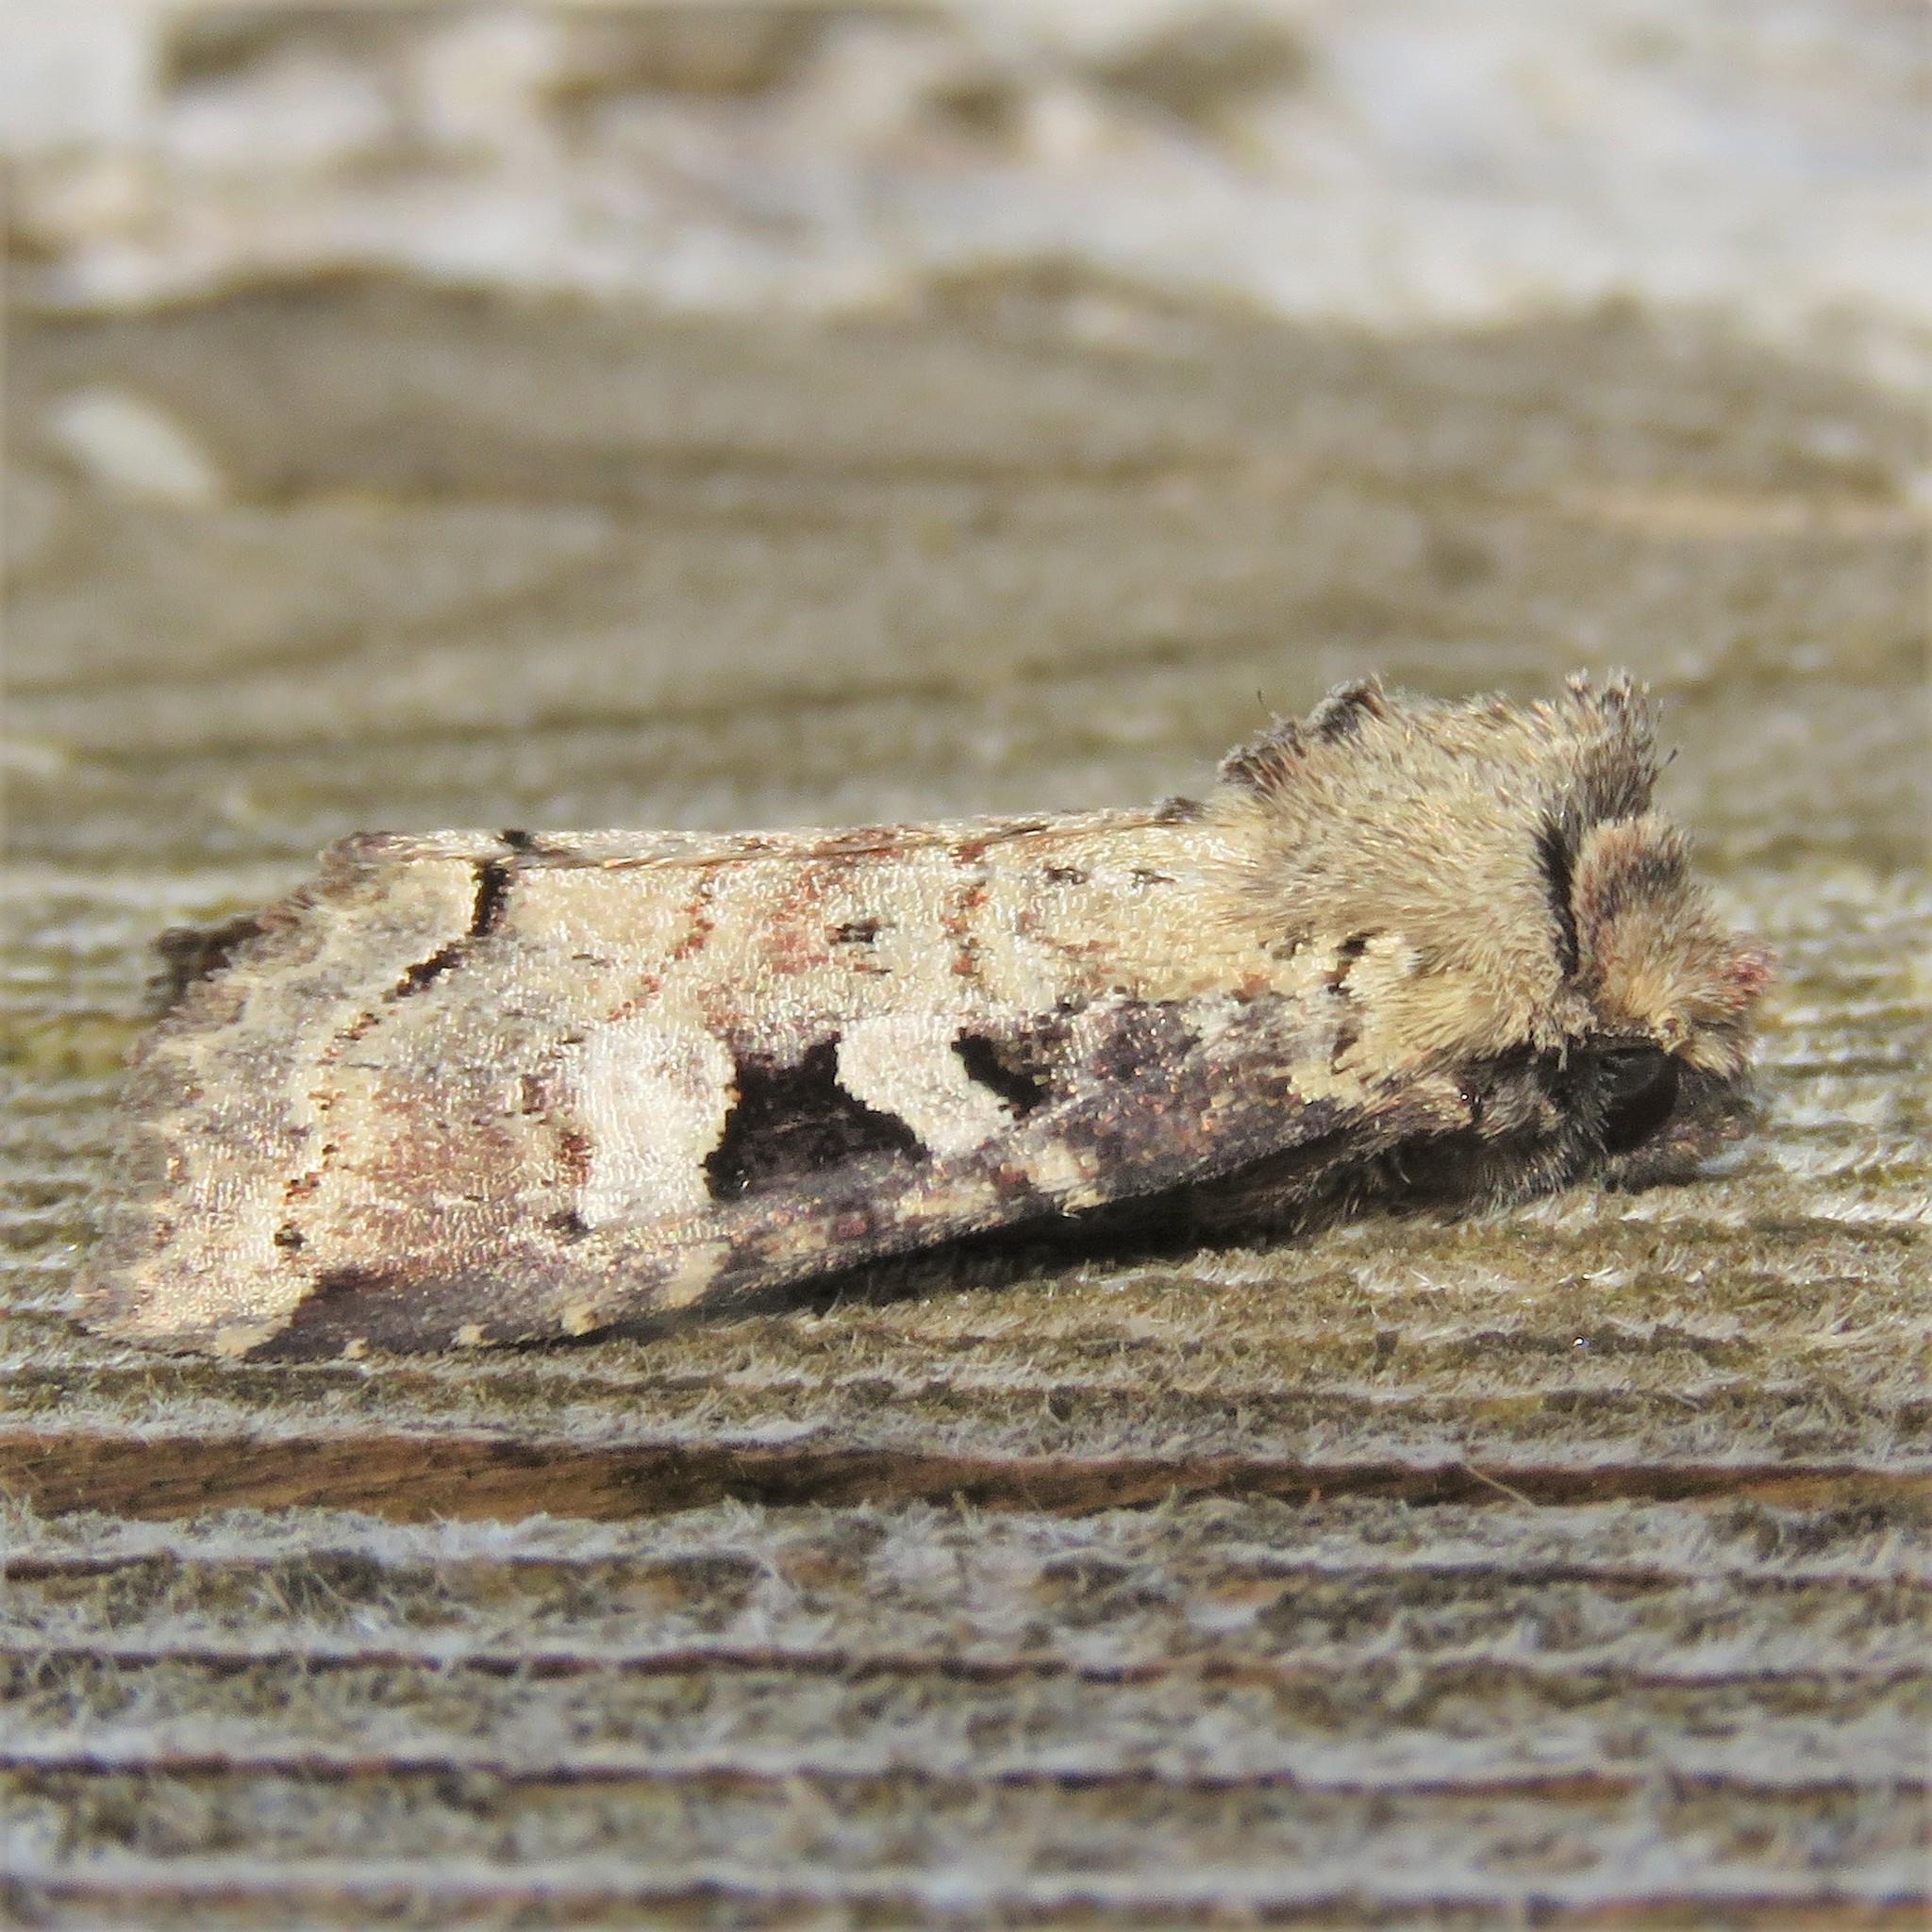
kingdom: Animalia
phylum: Arthropoda
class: Insecta
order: Lepidoptera
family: Noctuidae
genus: Hillia
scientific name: Hillia iris
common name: Iris rover moth
